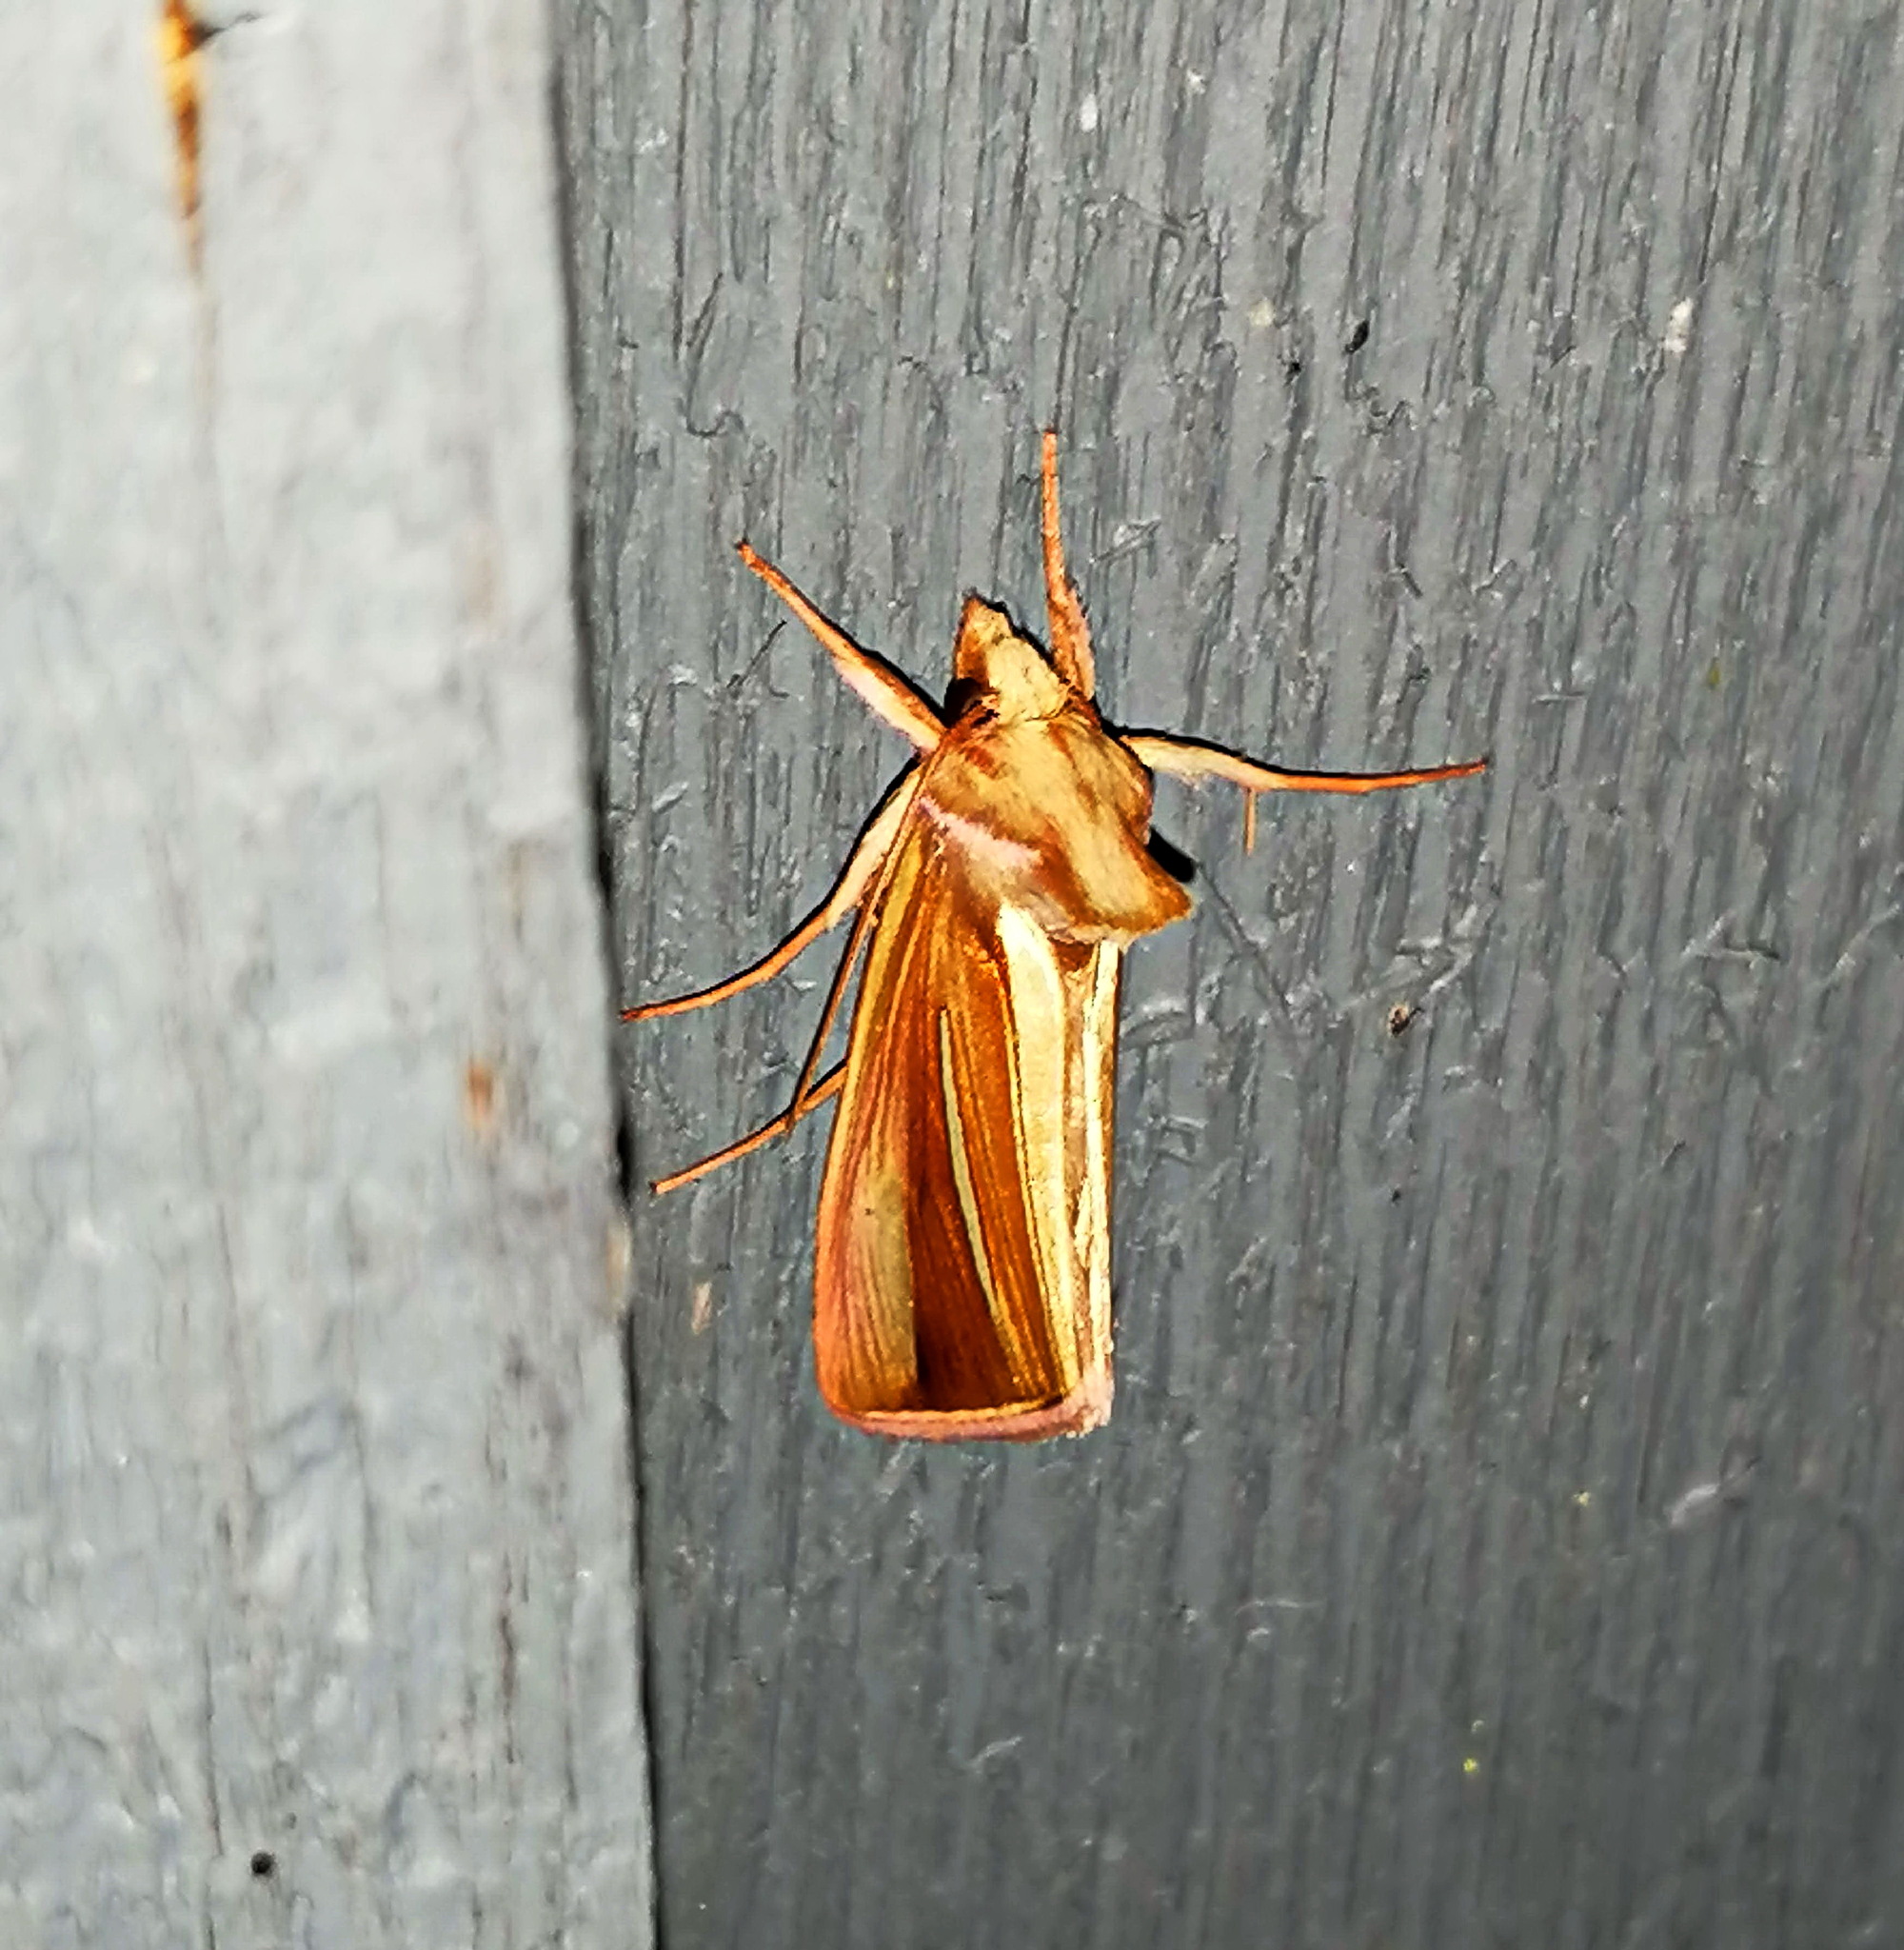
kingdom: Animalia
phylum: Arthropoda
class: Insecta
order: Lepidoptera
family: Noctuidae
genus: Plusia
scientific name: Plusia venusta
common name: White-streaked looper moth
